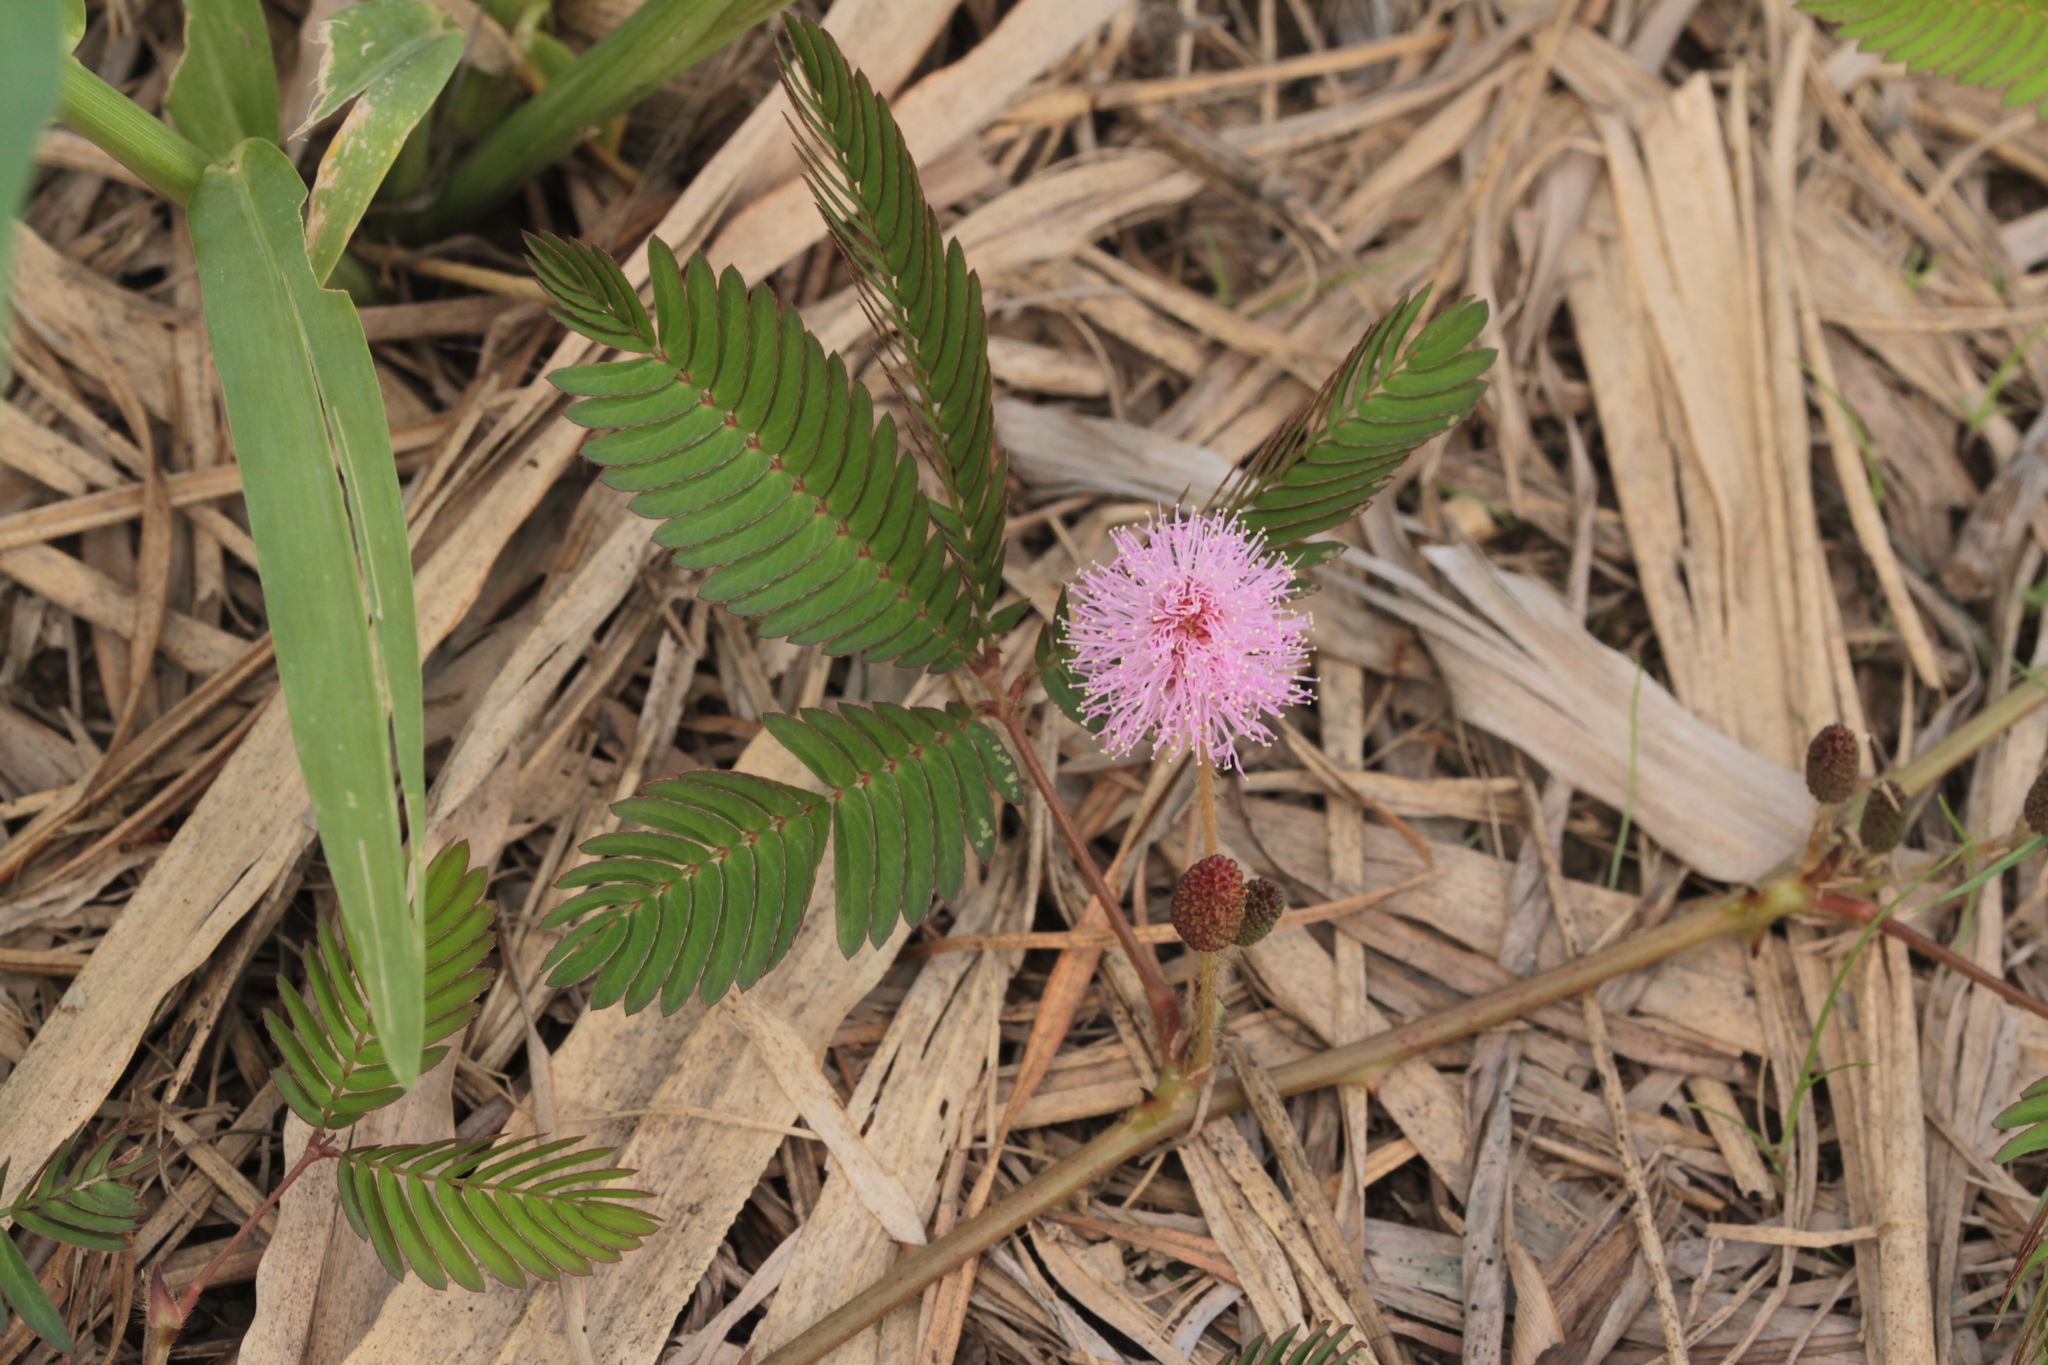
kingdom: Plantae
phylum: Tracheophyta
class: Magnoliopsida
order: Fabales
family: Fabaceae
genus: Mimosa
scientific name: Mimosa pudica
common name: Sensitive plant
